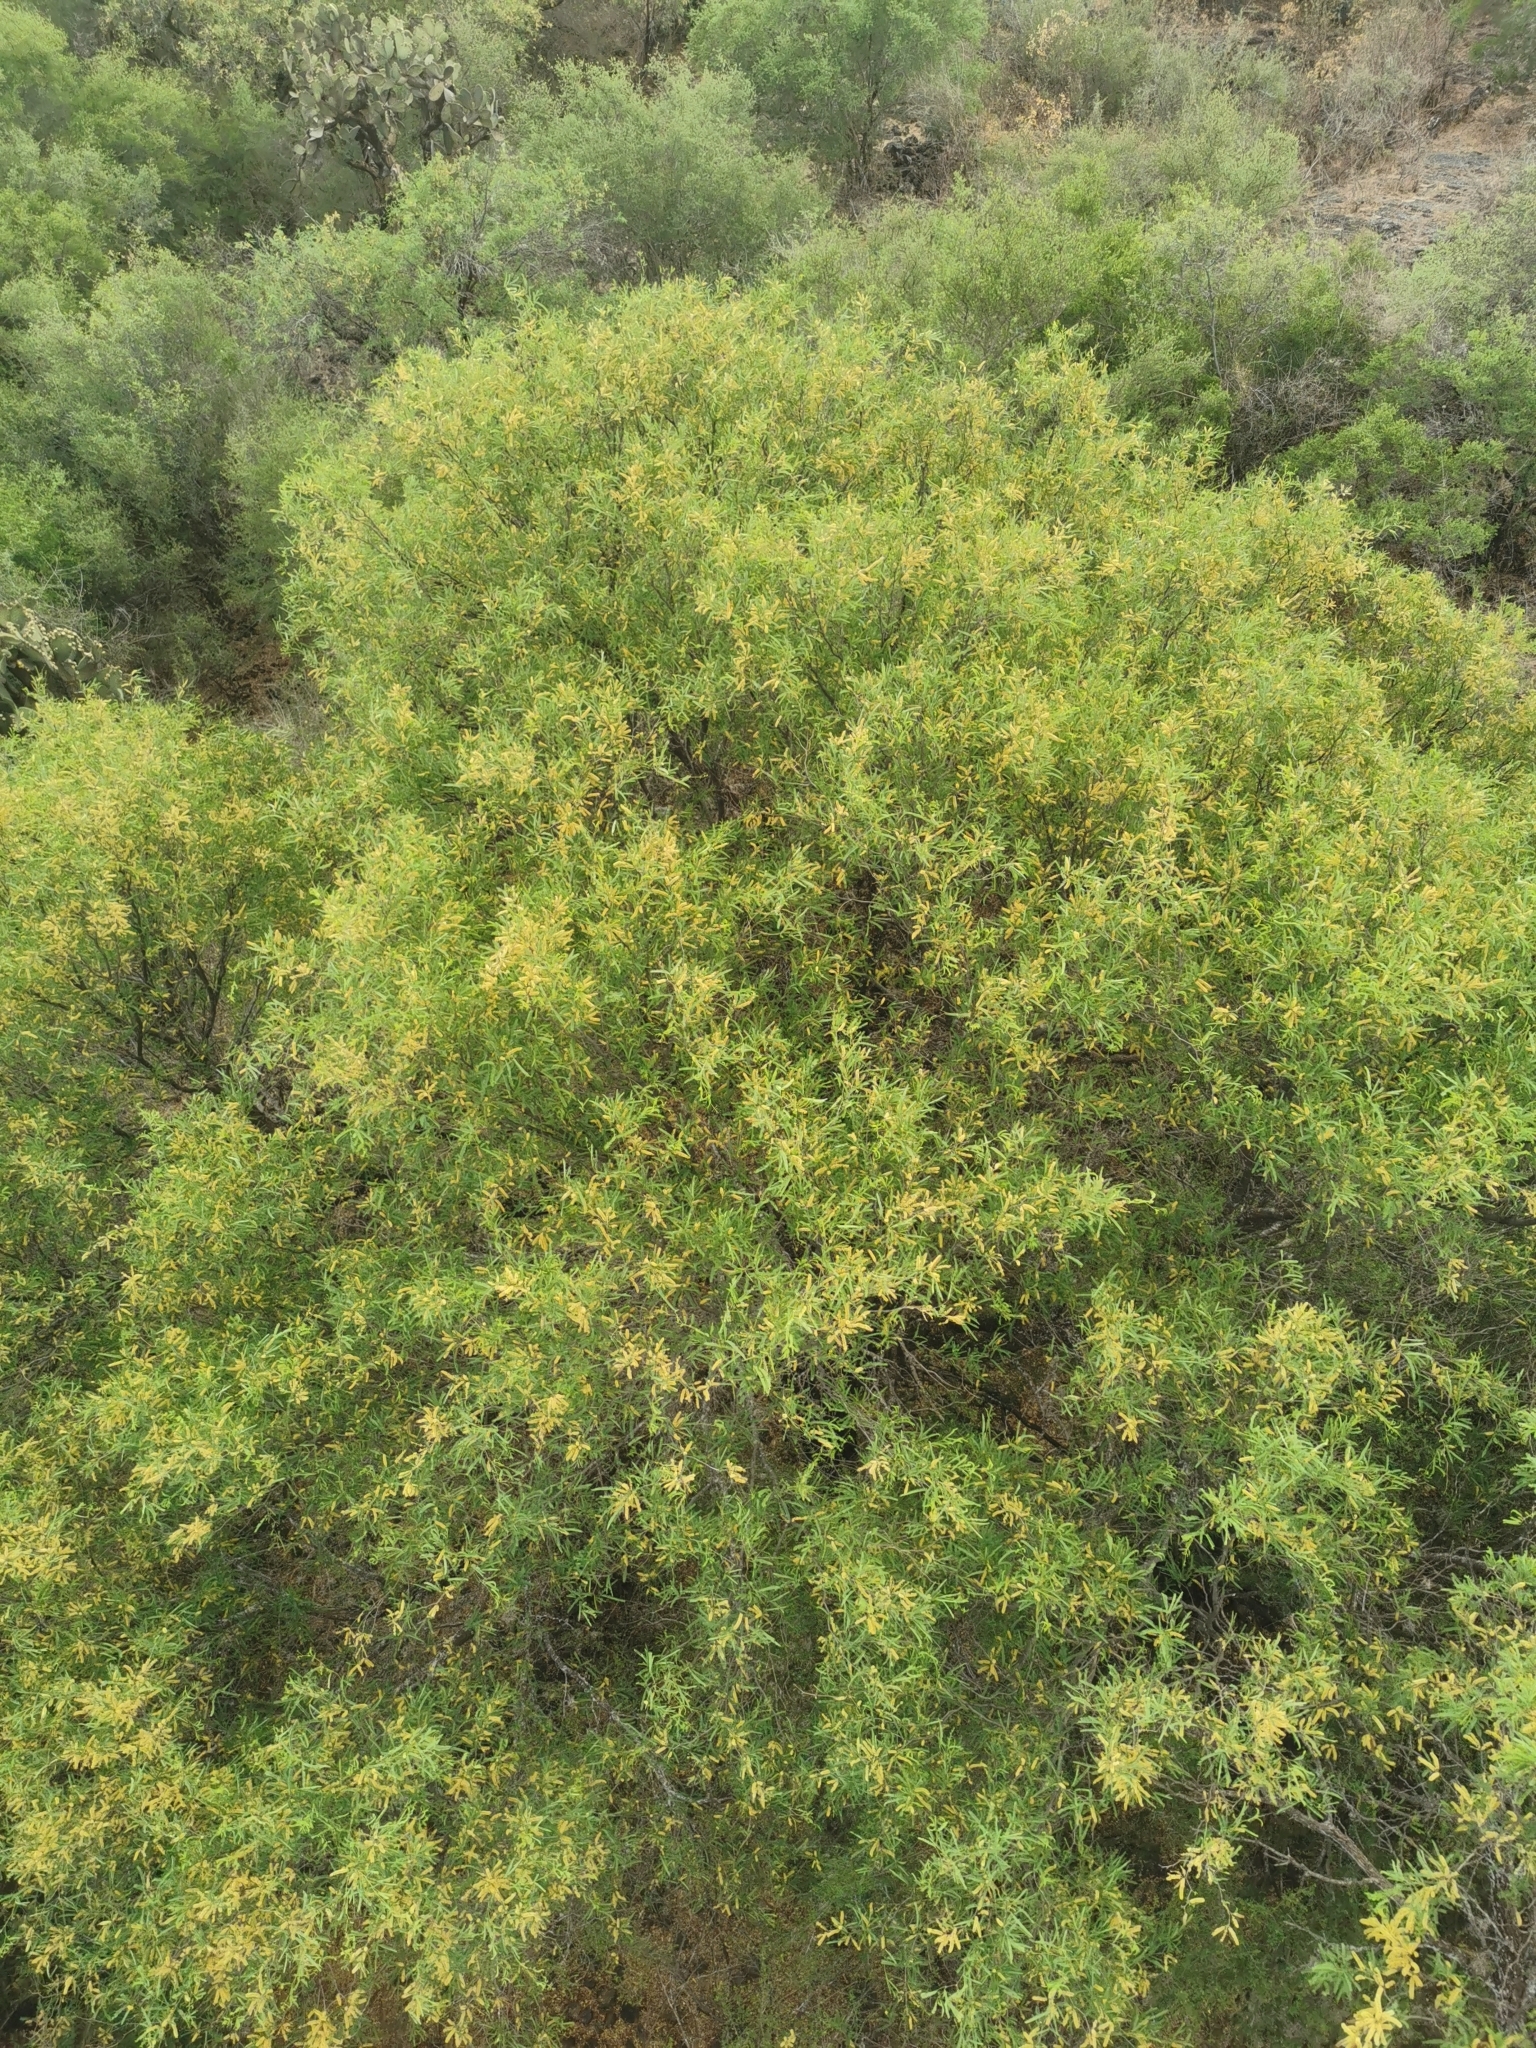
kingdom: Plantae
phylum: Tracheophyta
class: Magnoliopsida
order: Fabales
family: Fabaceae
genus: Prosopis
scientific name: Prosopis laevigata
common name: Smooth mesquite
